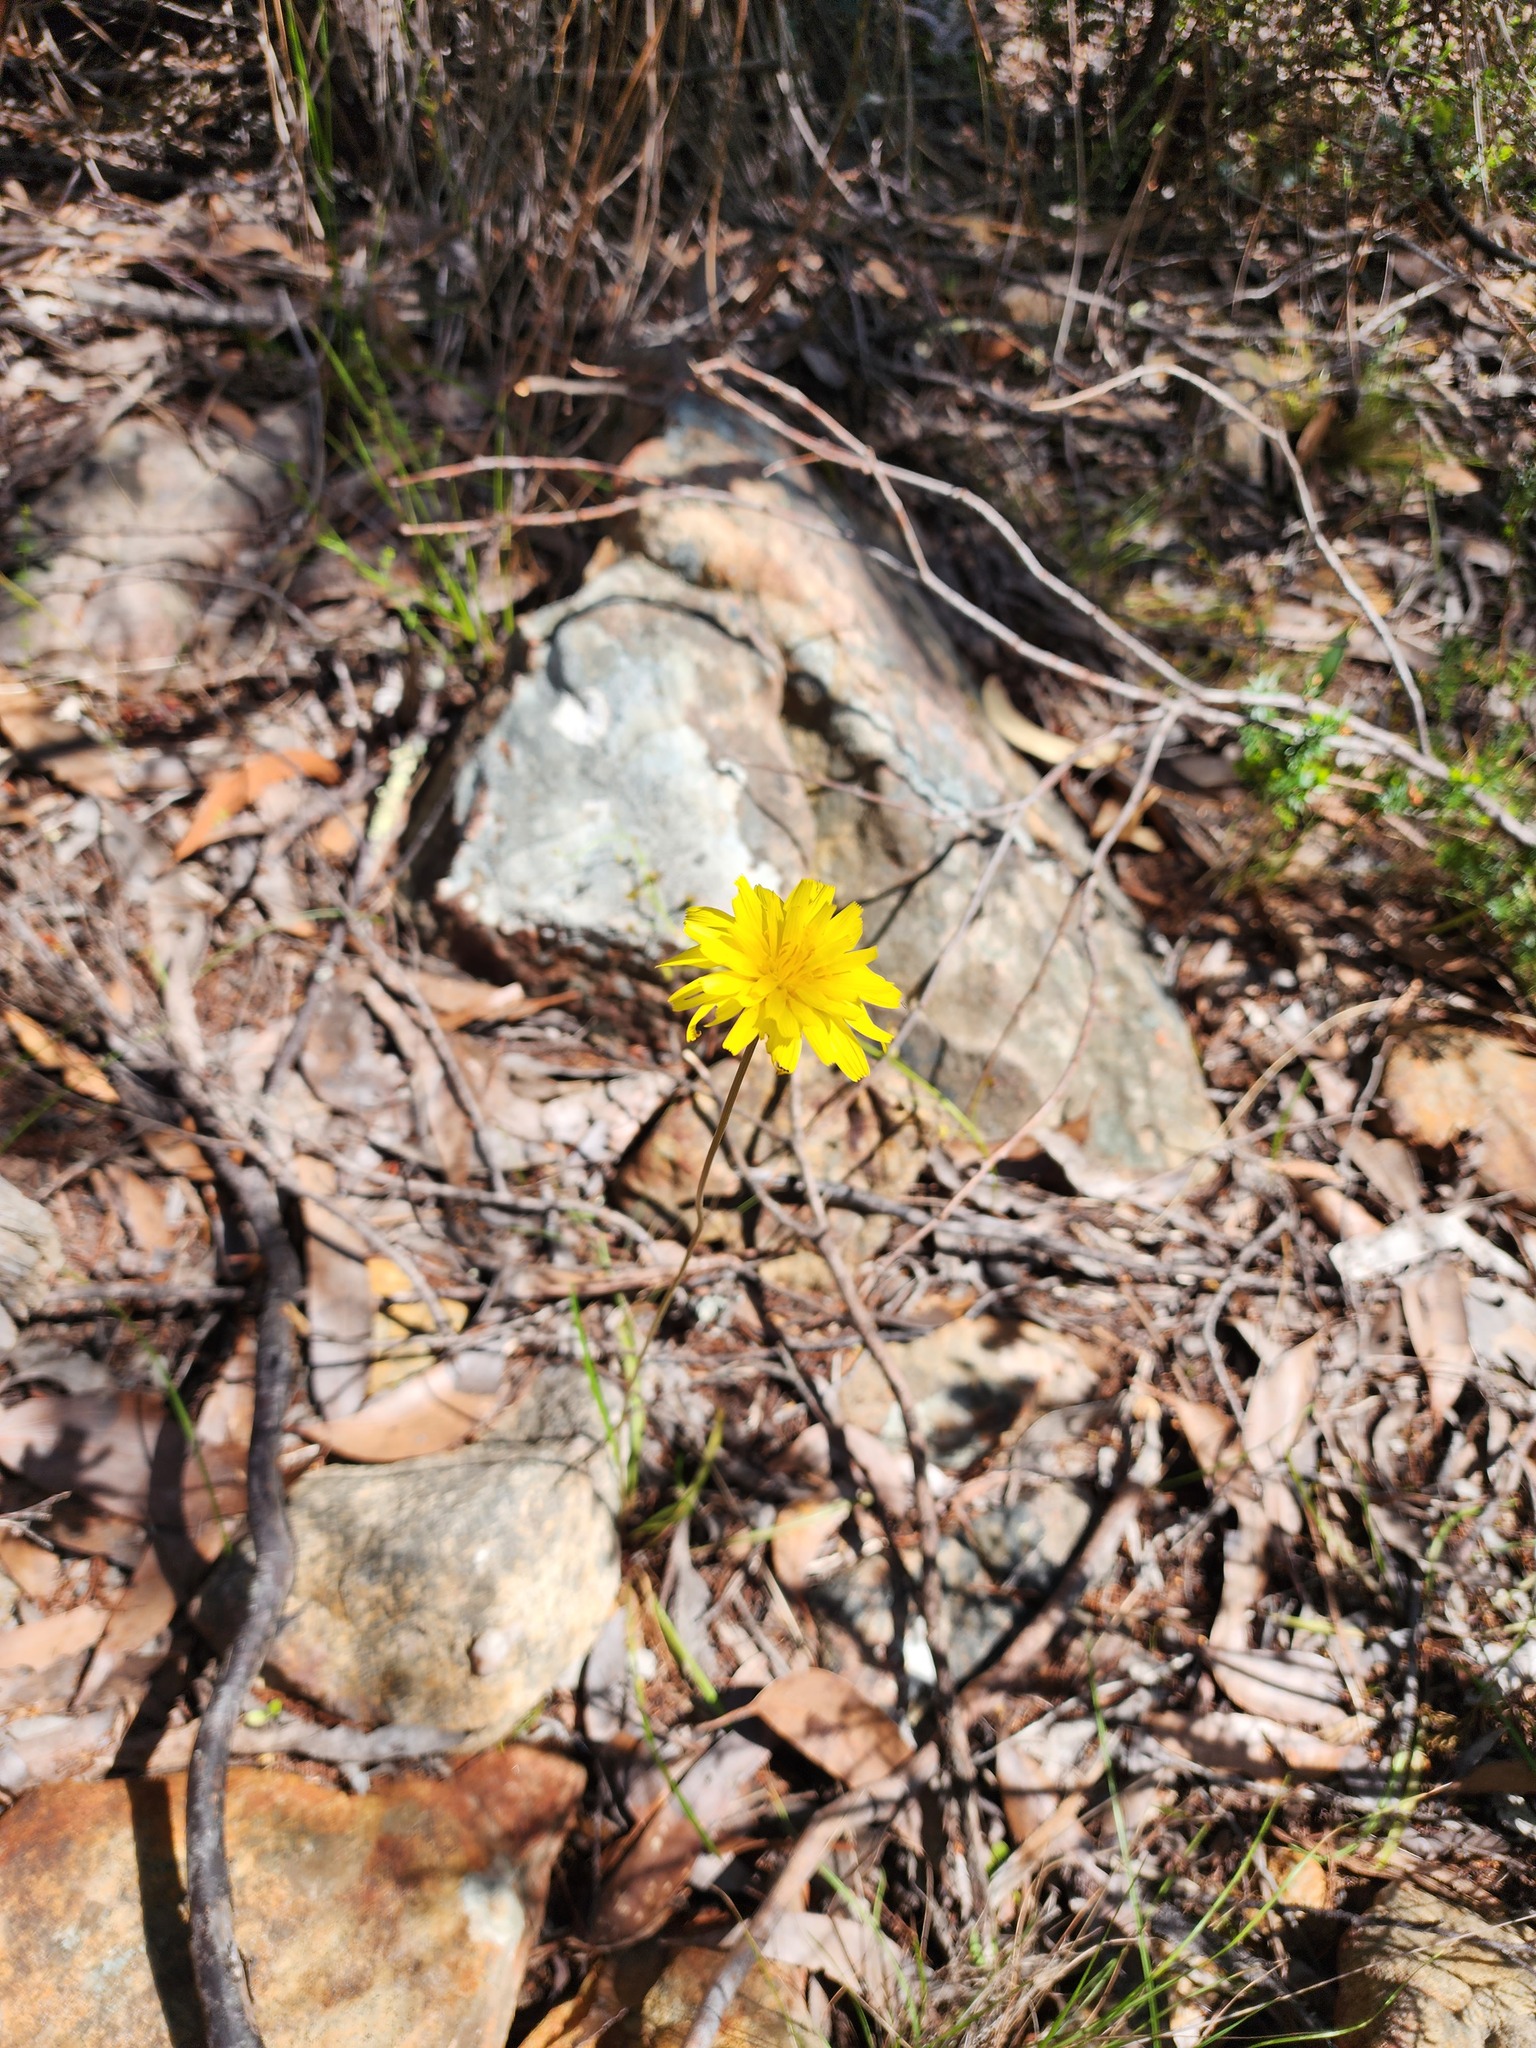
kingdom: Plantae
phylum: Tracheophyta
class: Magnoliopsida
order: Asterales
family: Asteraceae
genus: Microseris
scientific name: Microseris lanceolata
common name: Yam daisy
